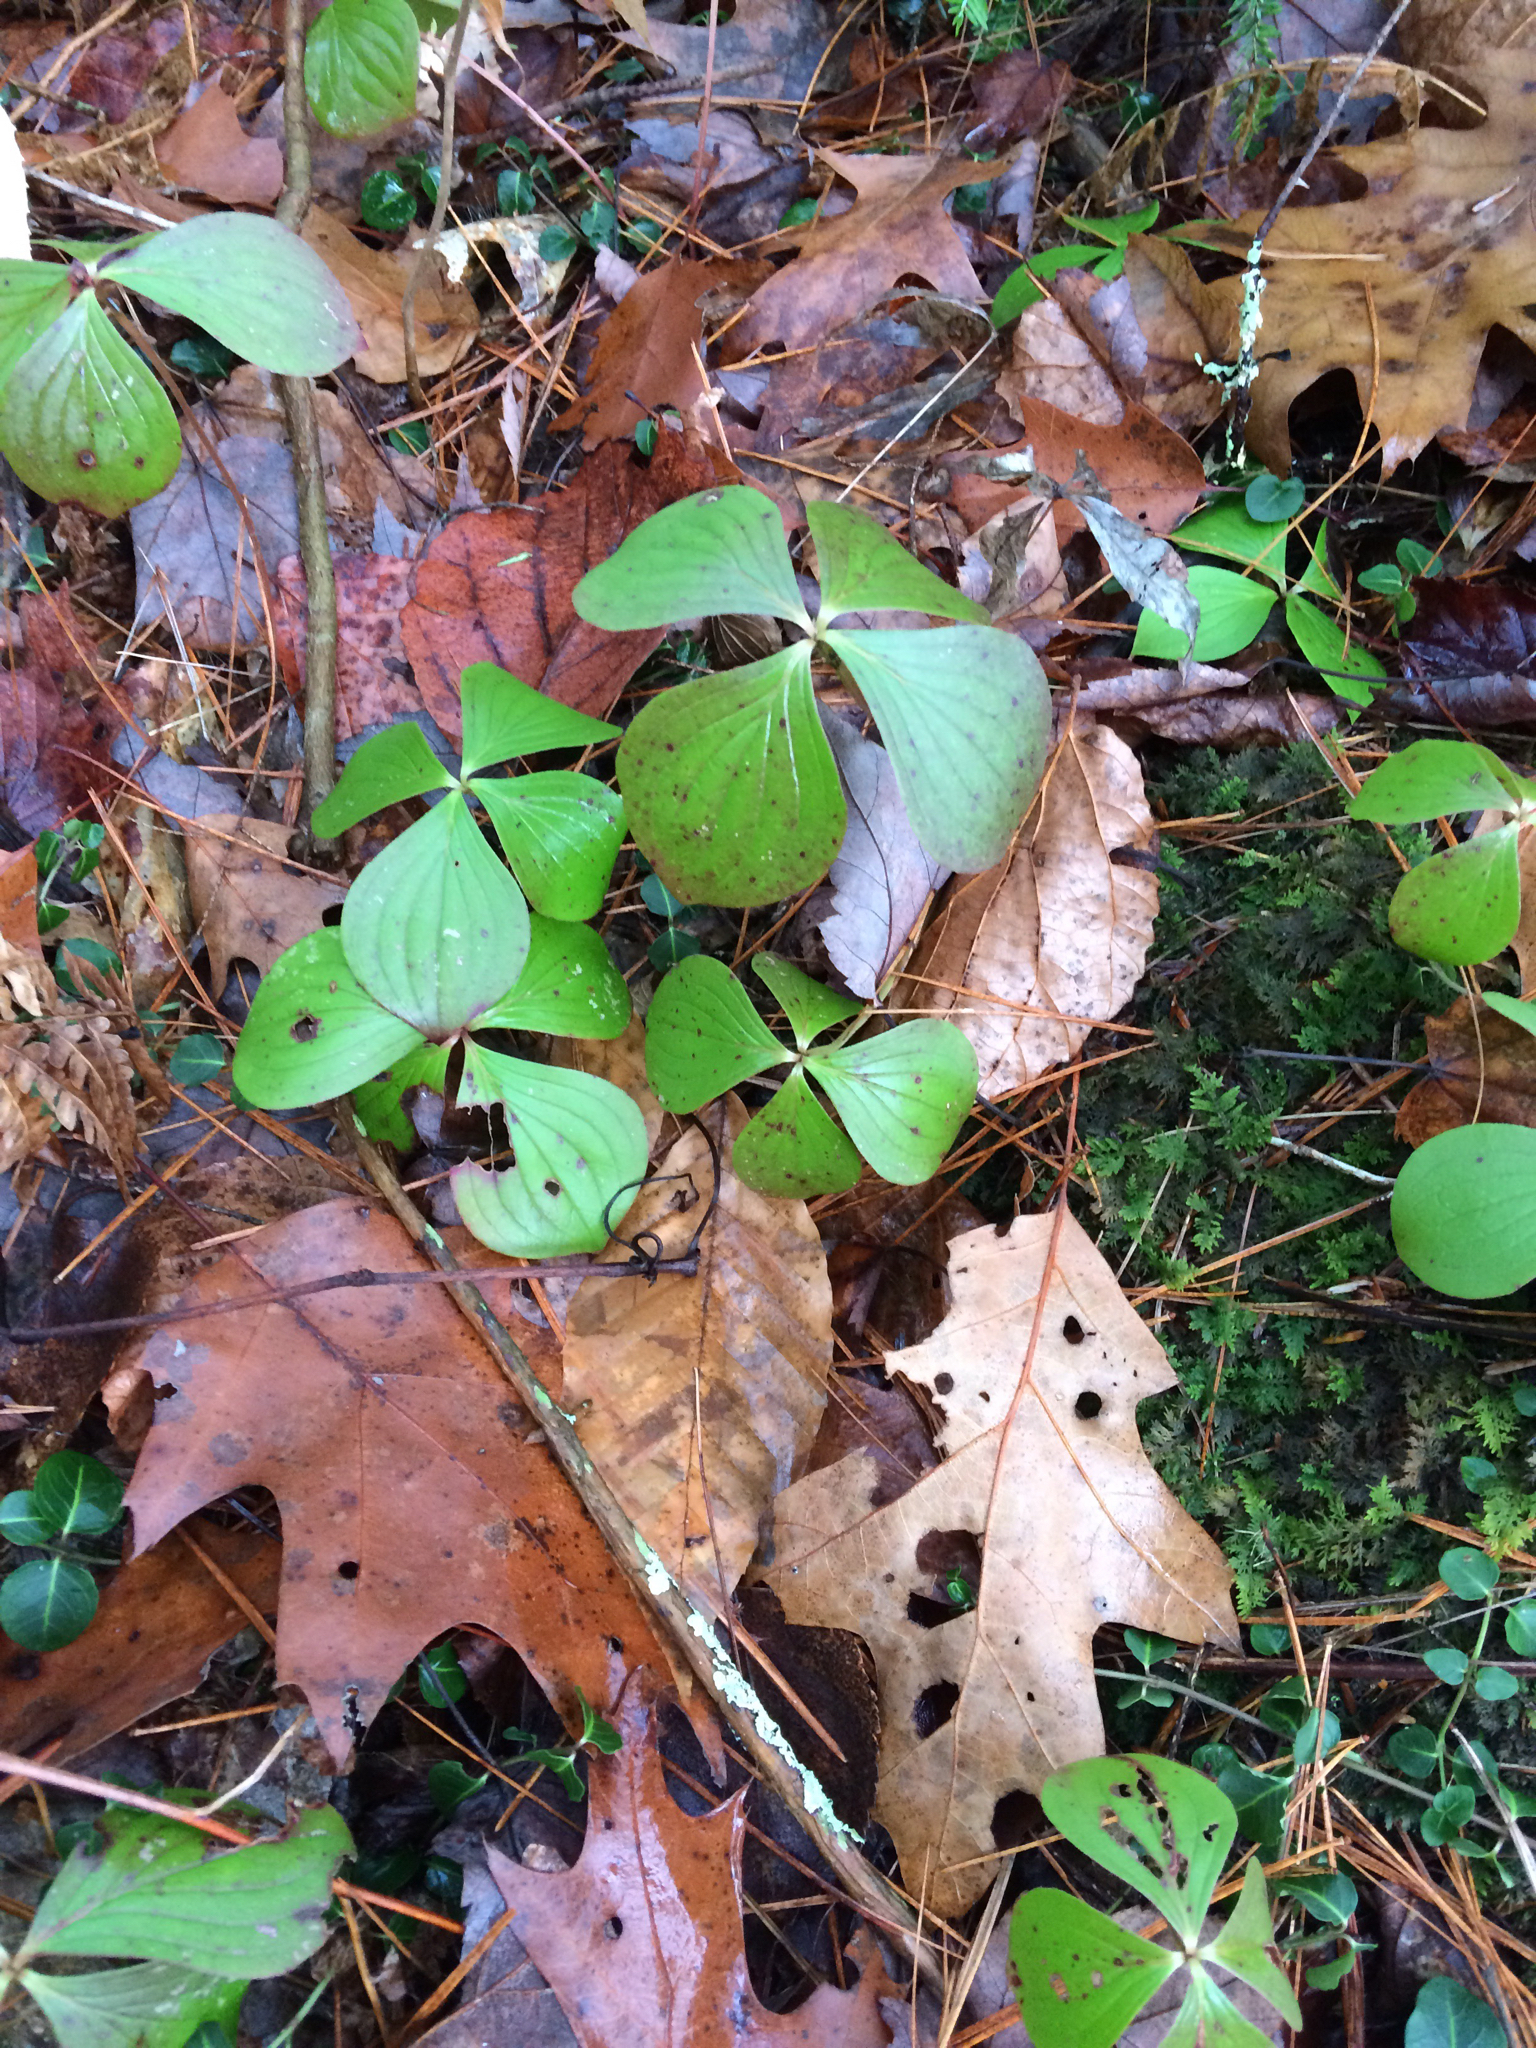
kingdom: Plantae
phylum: Tracheophyta
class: Magnoliopsida
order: Cornales
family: Cornaceae
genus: Cornus
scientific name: Cornus canadensis
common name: Creeping dogwood
